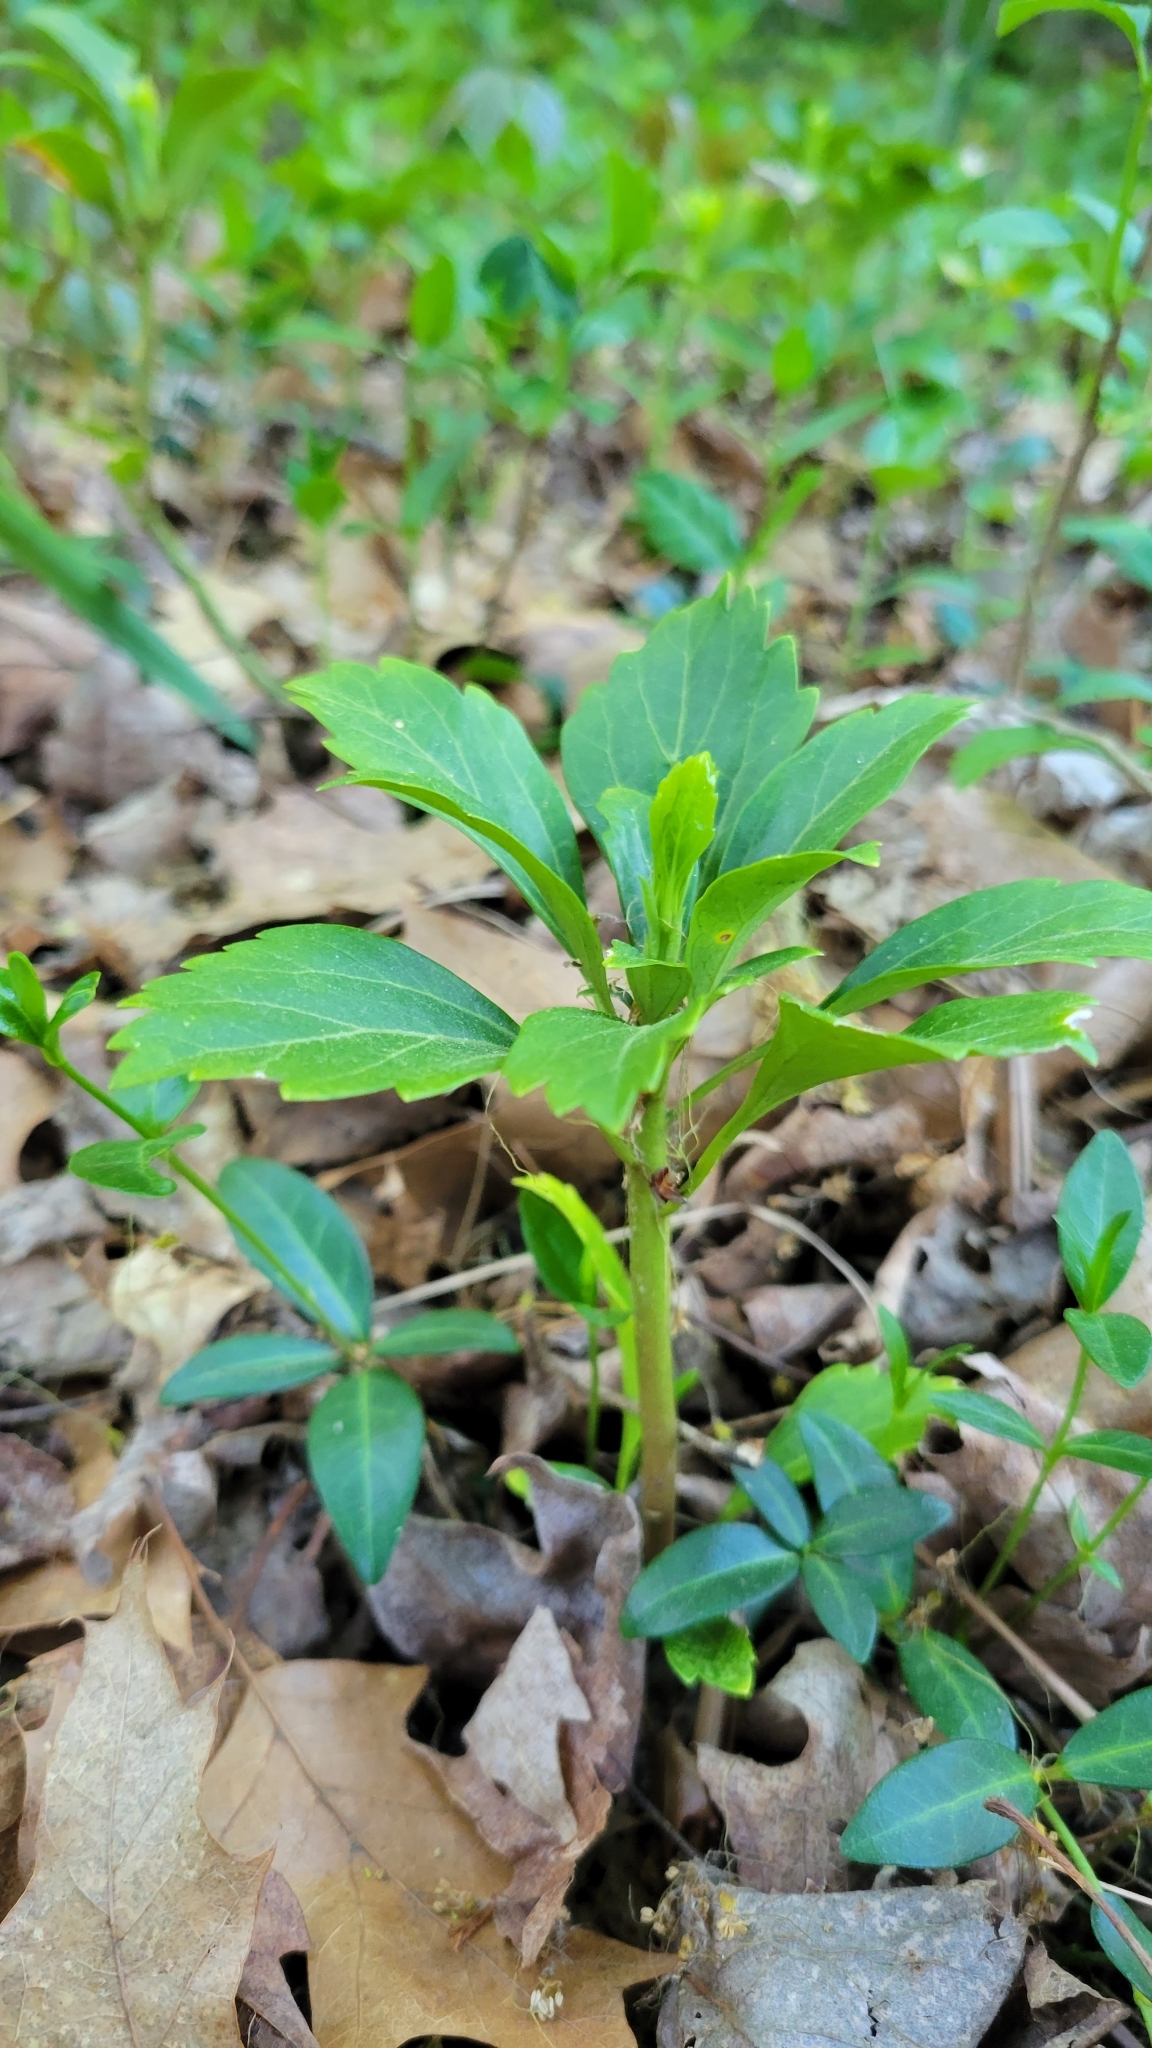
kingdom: Plantae
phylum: Tracheophyta
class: Magnoliopsida
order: Buxales
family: Buxaceae
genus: Pachysandra
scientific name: Pachysandra terminalis
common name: Japanese pachysandra
